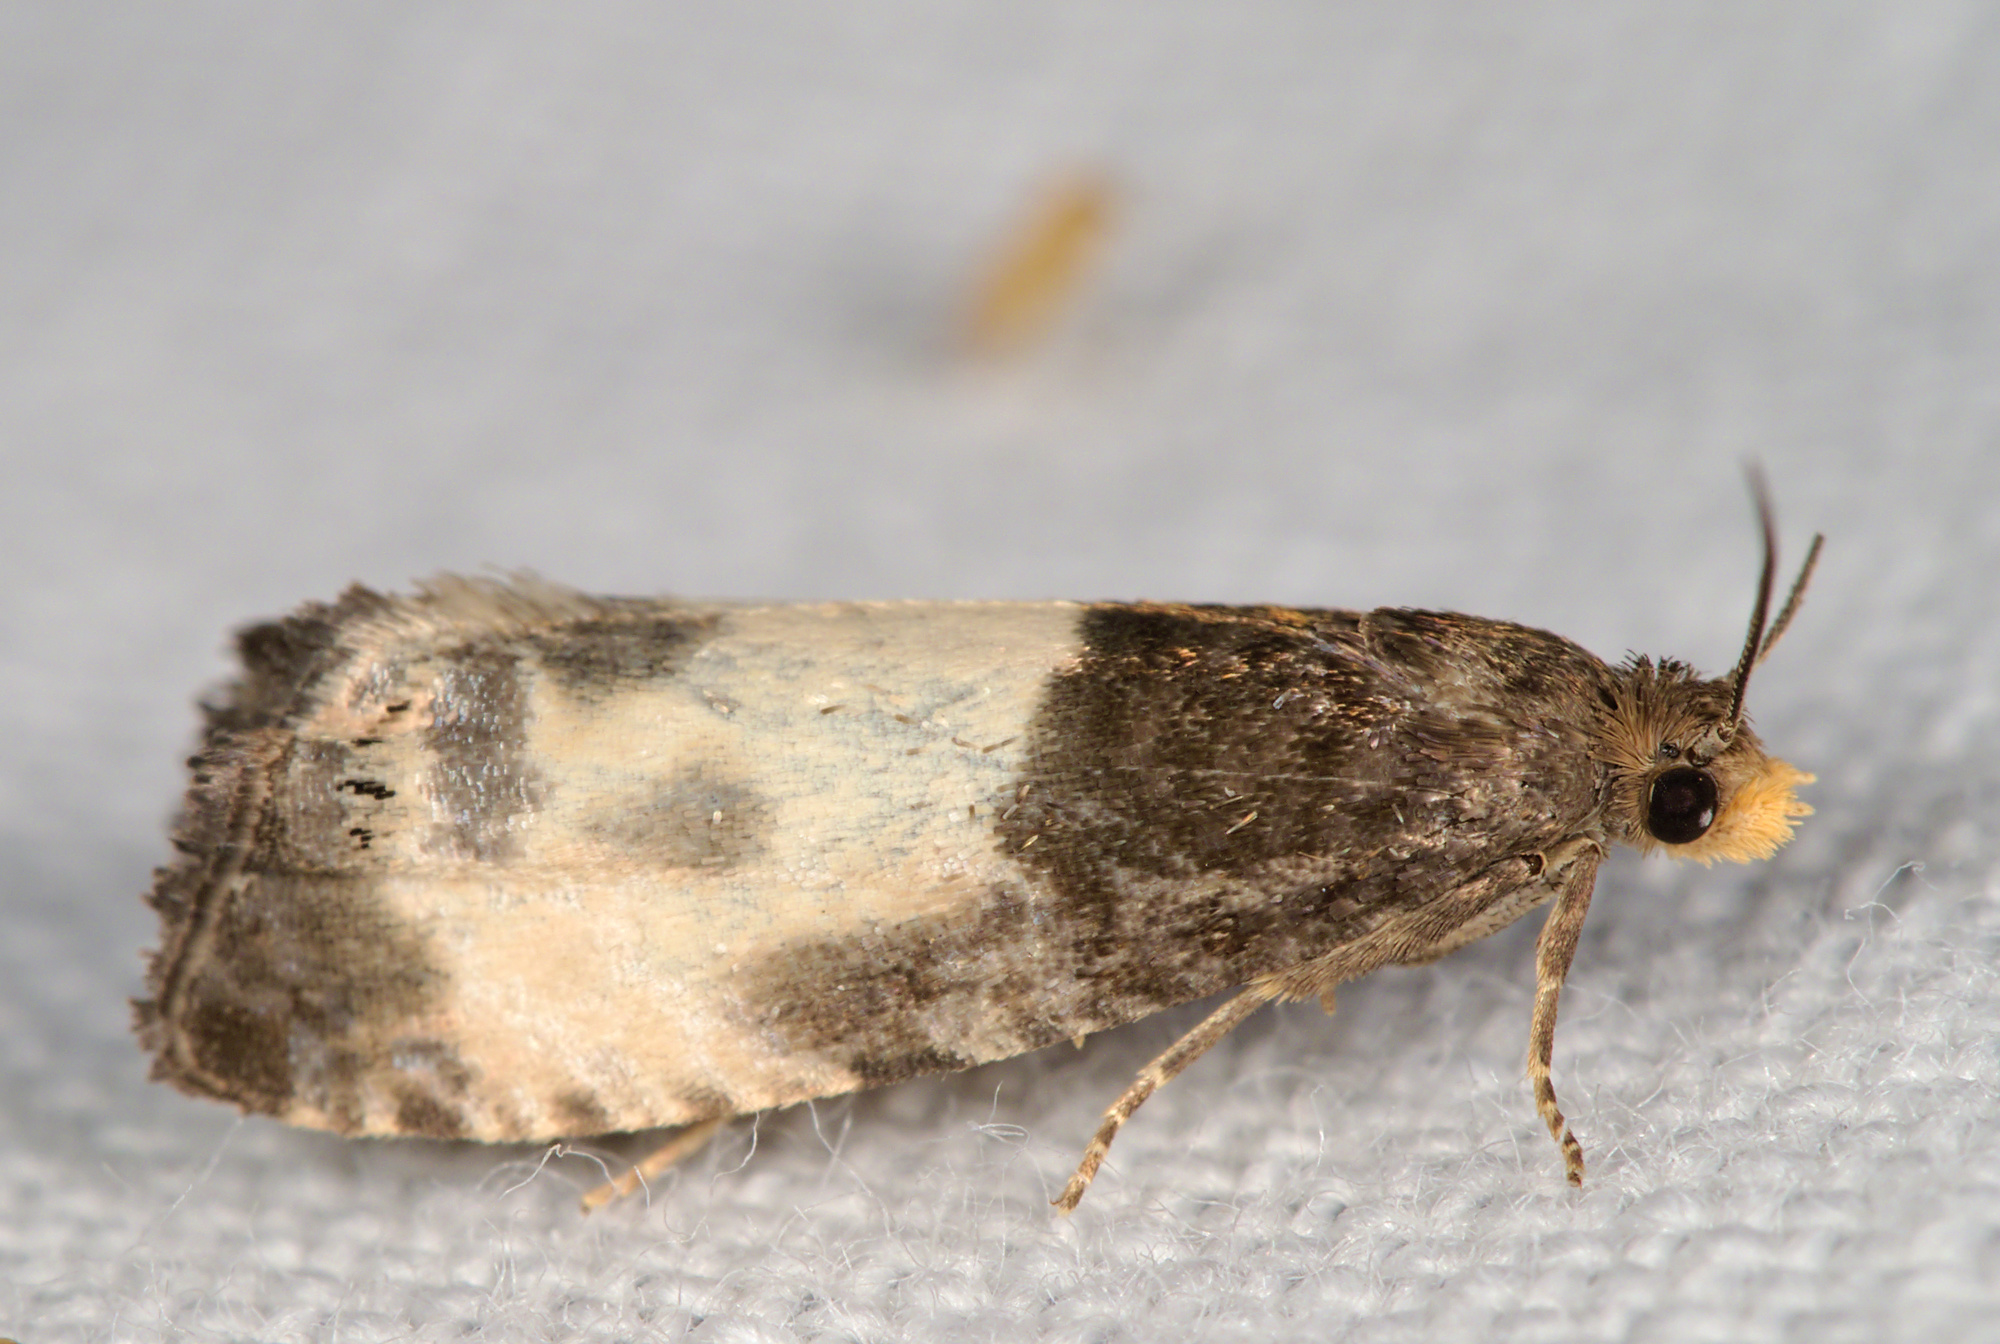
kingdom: Animalia
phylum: Arthropoda
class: Insecta
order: Lepidoptera
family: Tortricidae
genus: Notocelia
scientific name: Notocelia cynosbatella
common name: Yellow-faced bell moth
